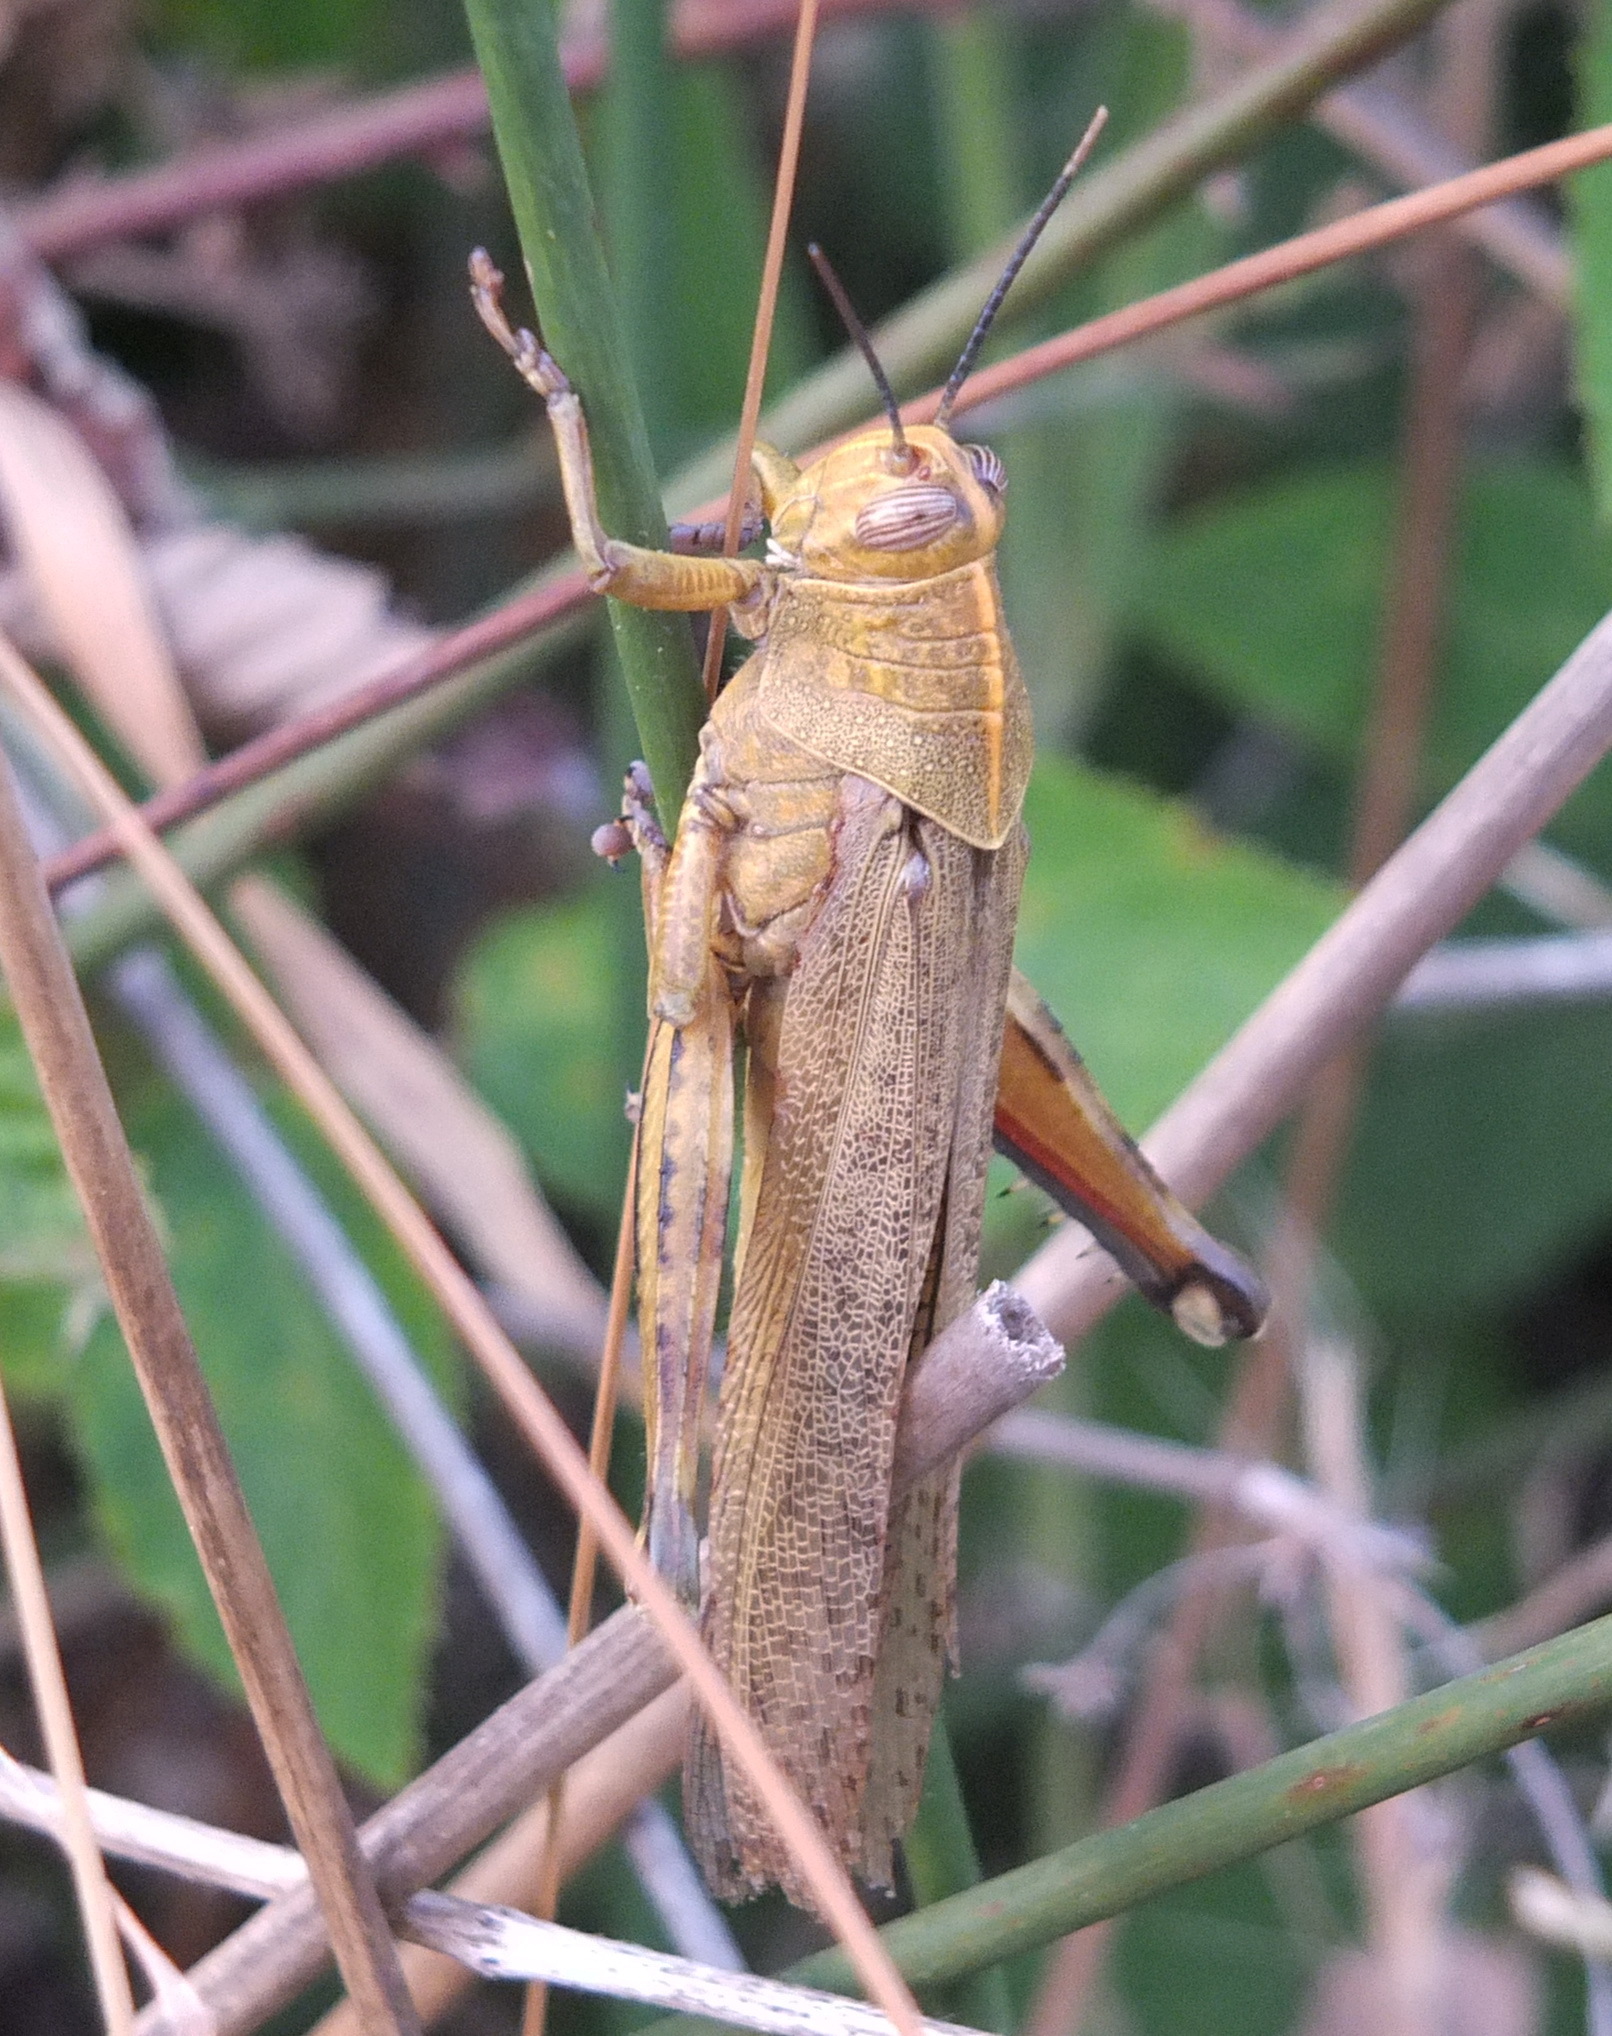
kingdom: Animalia
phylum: Arthropoda
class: Insecta
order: Orthoptera
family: Acrididae
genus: Anacridium
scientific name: Anacridium aegyptium
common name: Egyptian grasshopper
